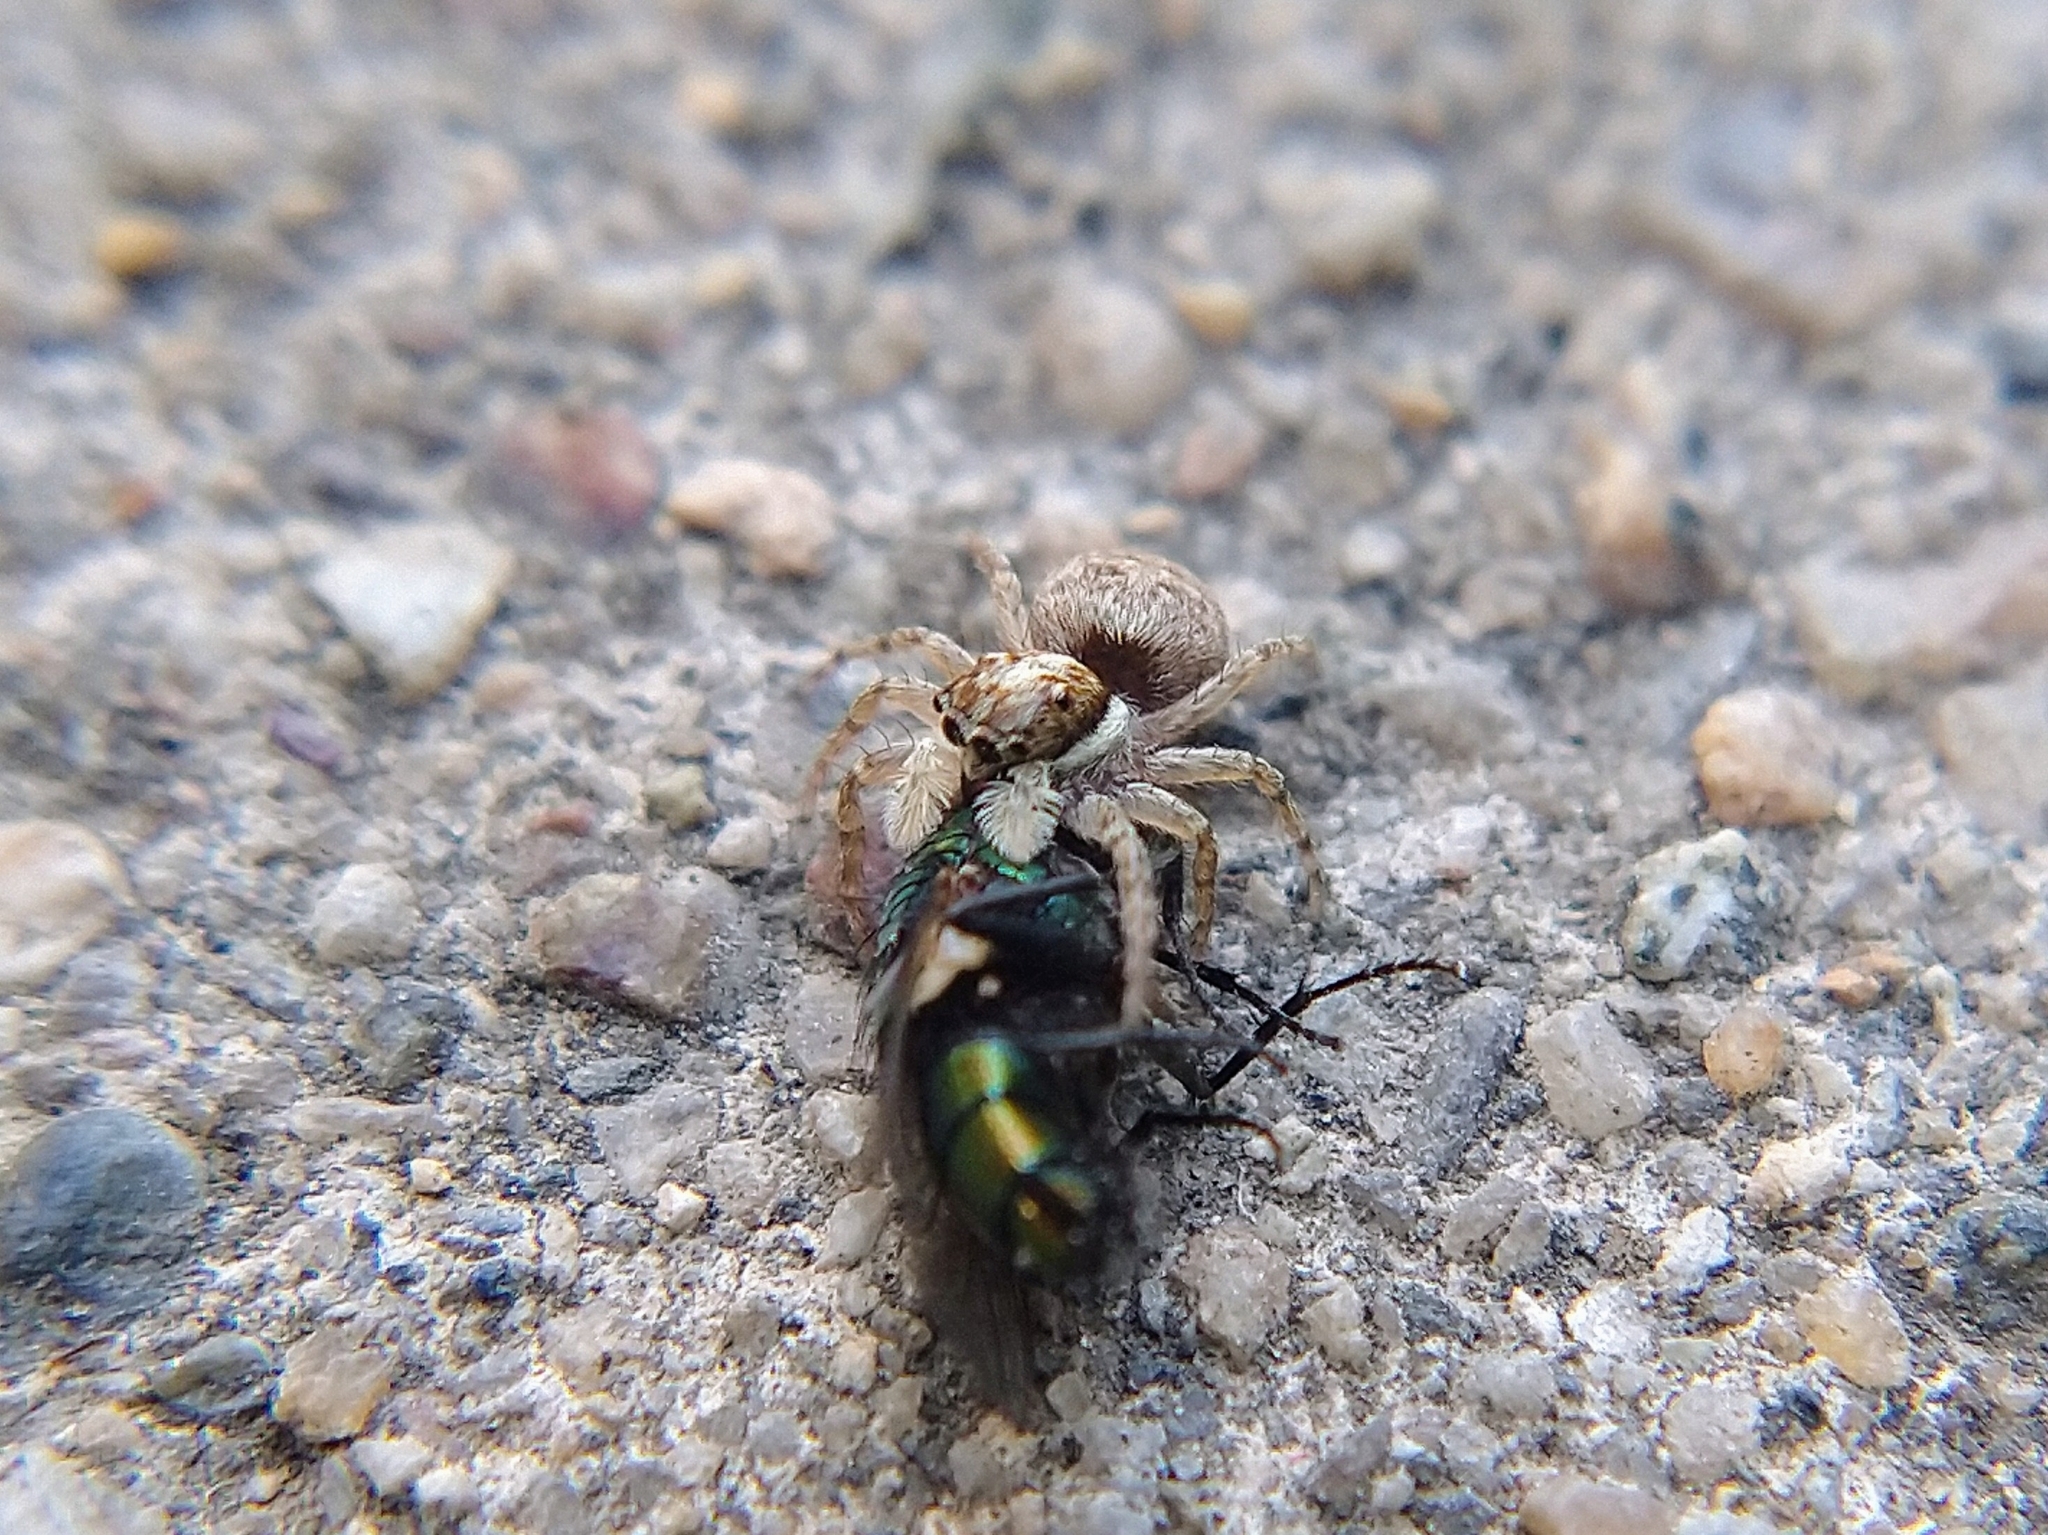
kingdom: Animalia
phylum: Arthropoda
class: Arachnida
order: Araneae
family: Salticidae
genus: Menemerus
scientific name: Menemerus semilimbatus
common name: Jumping spider
